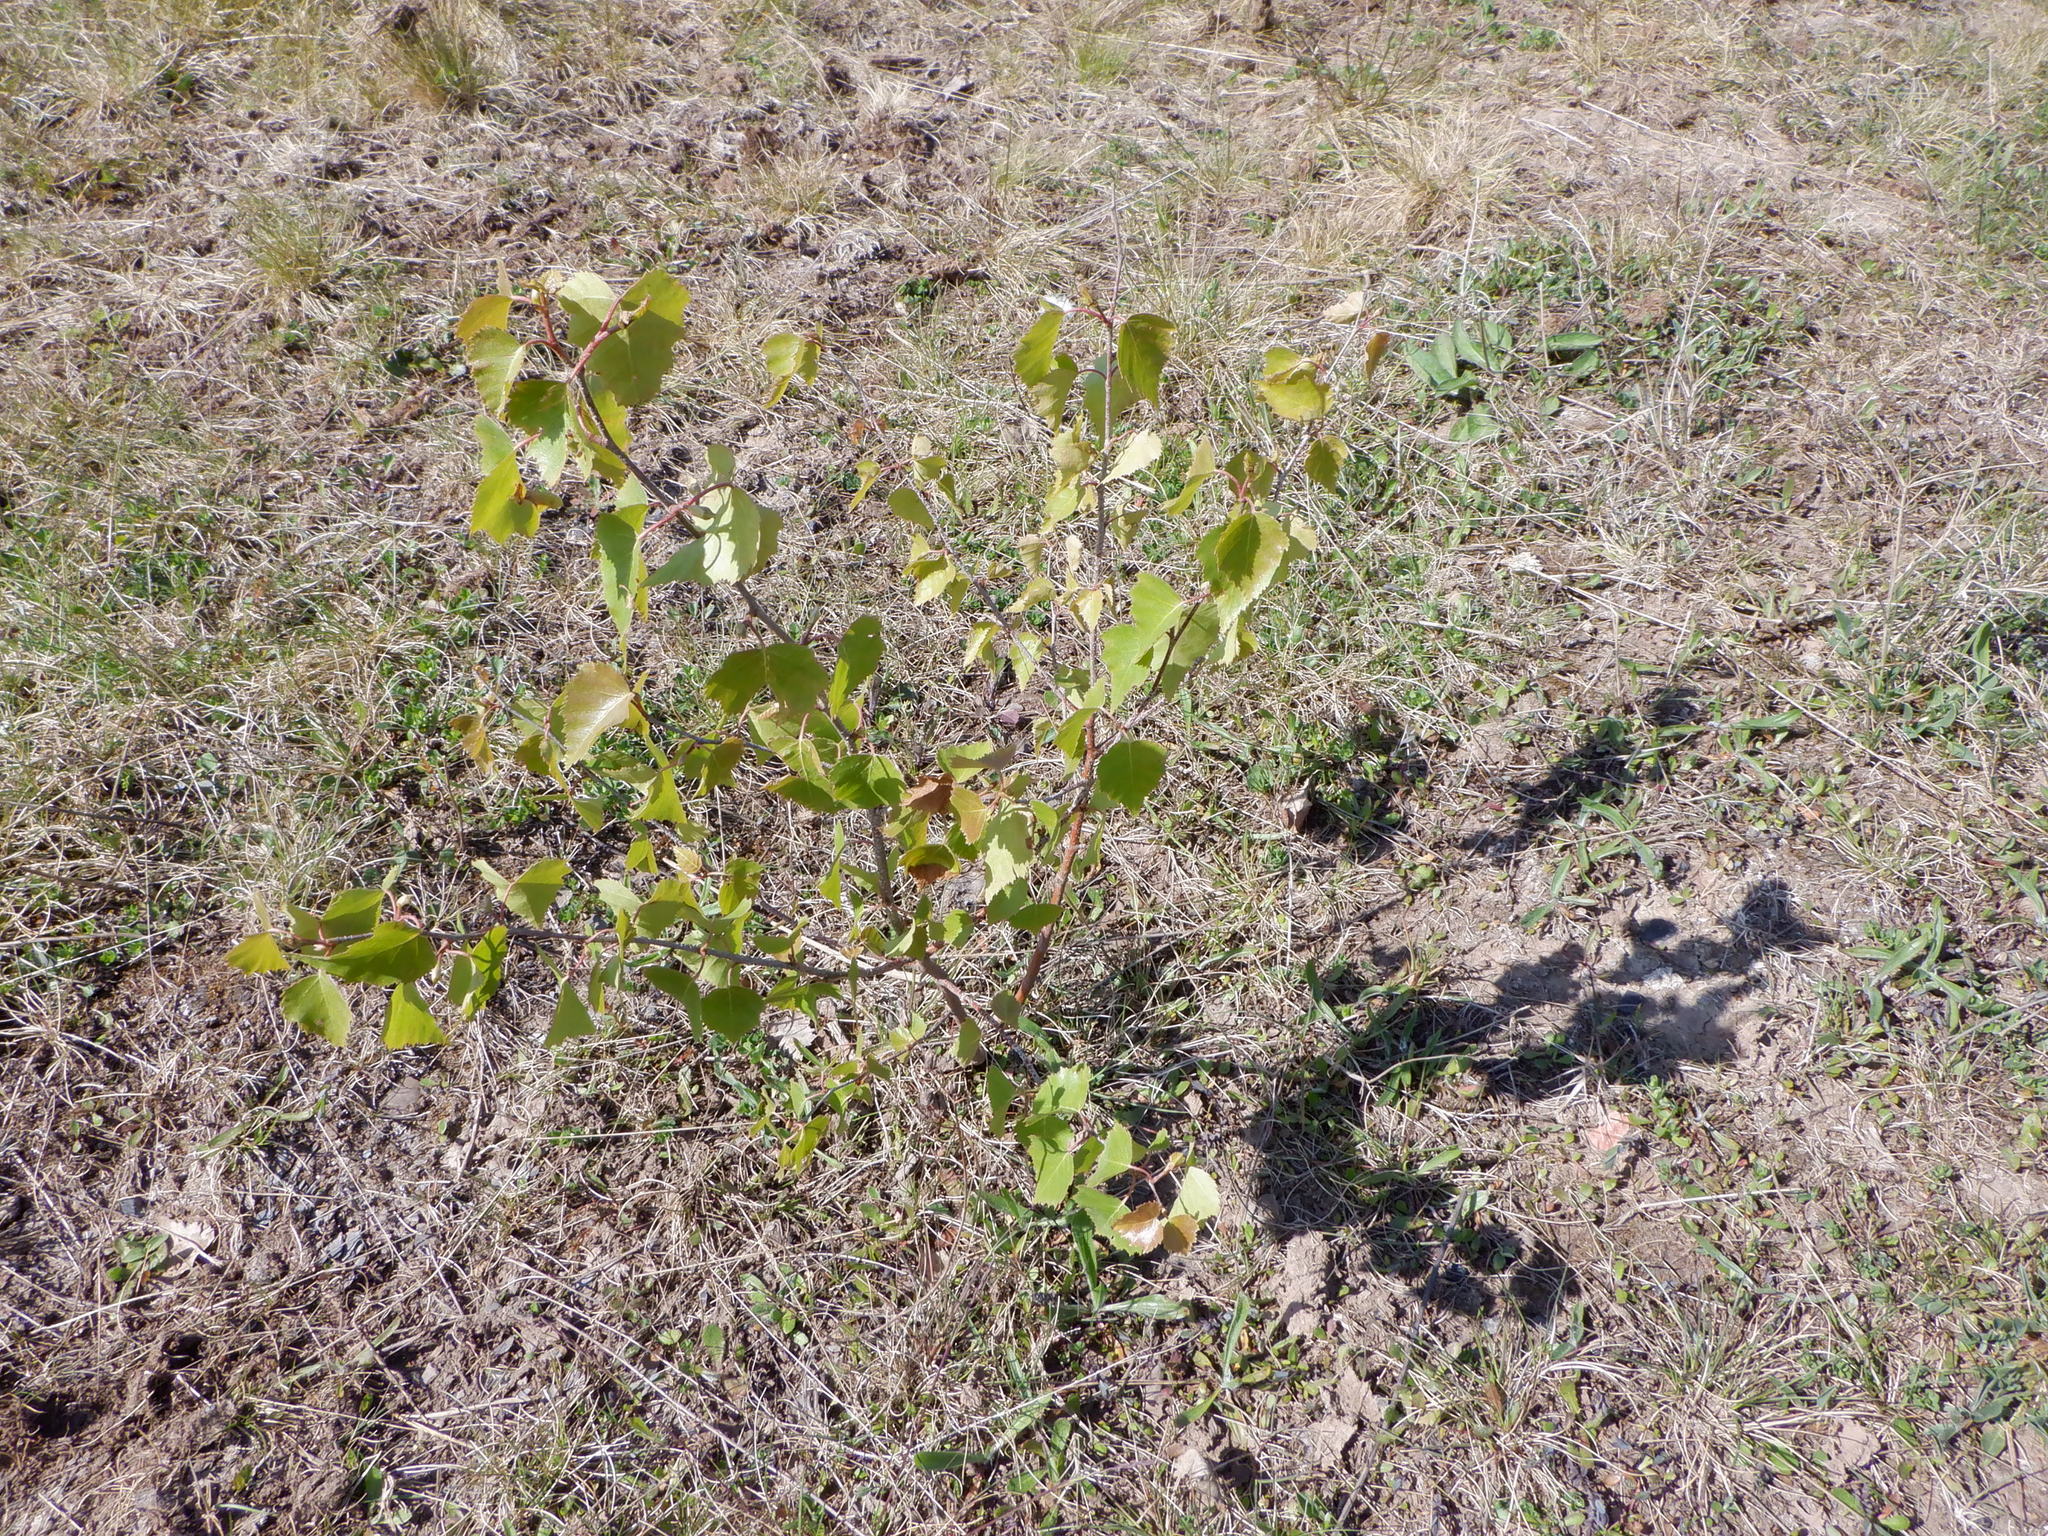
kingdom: Plantae
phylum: Tracheophyta
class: Magnoliopsida
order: Fagales
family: Betulaceae
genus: Betula
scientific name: Betula pendula
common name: Silver birch
